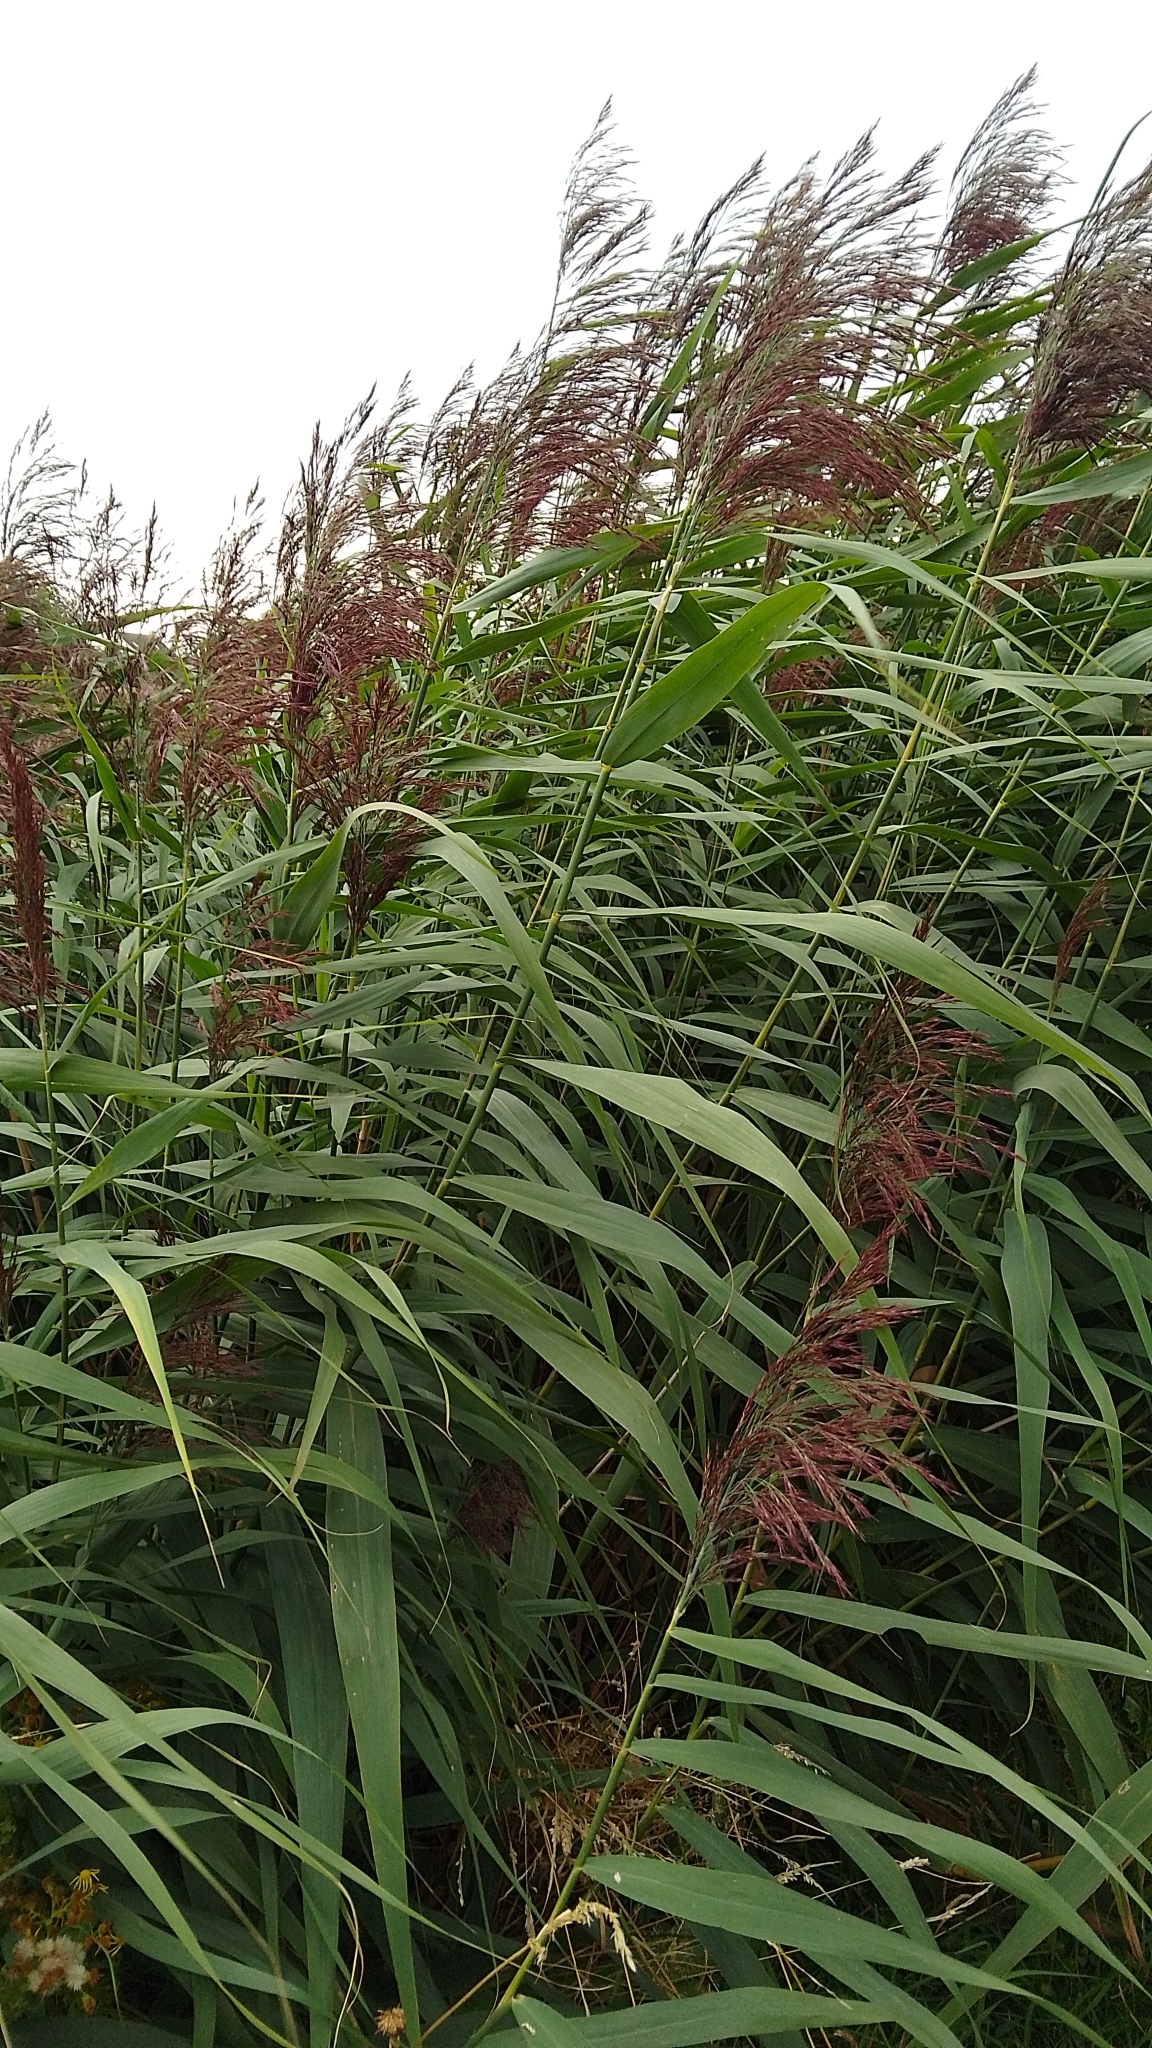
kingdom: Plantae
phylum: Tracheophyta
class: Liliopsida
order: Poales
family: Poaceae
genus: Phragmites
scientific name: Phragmites australis
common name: Common reed
